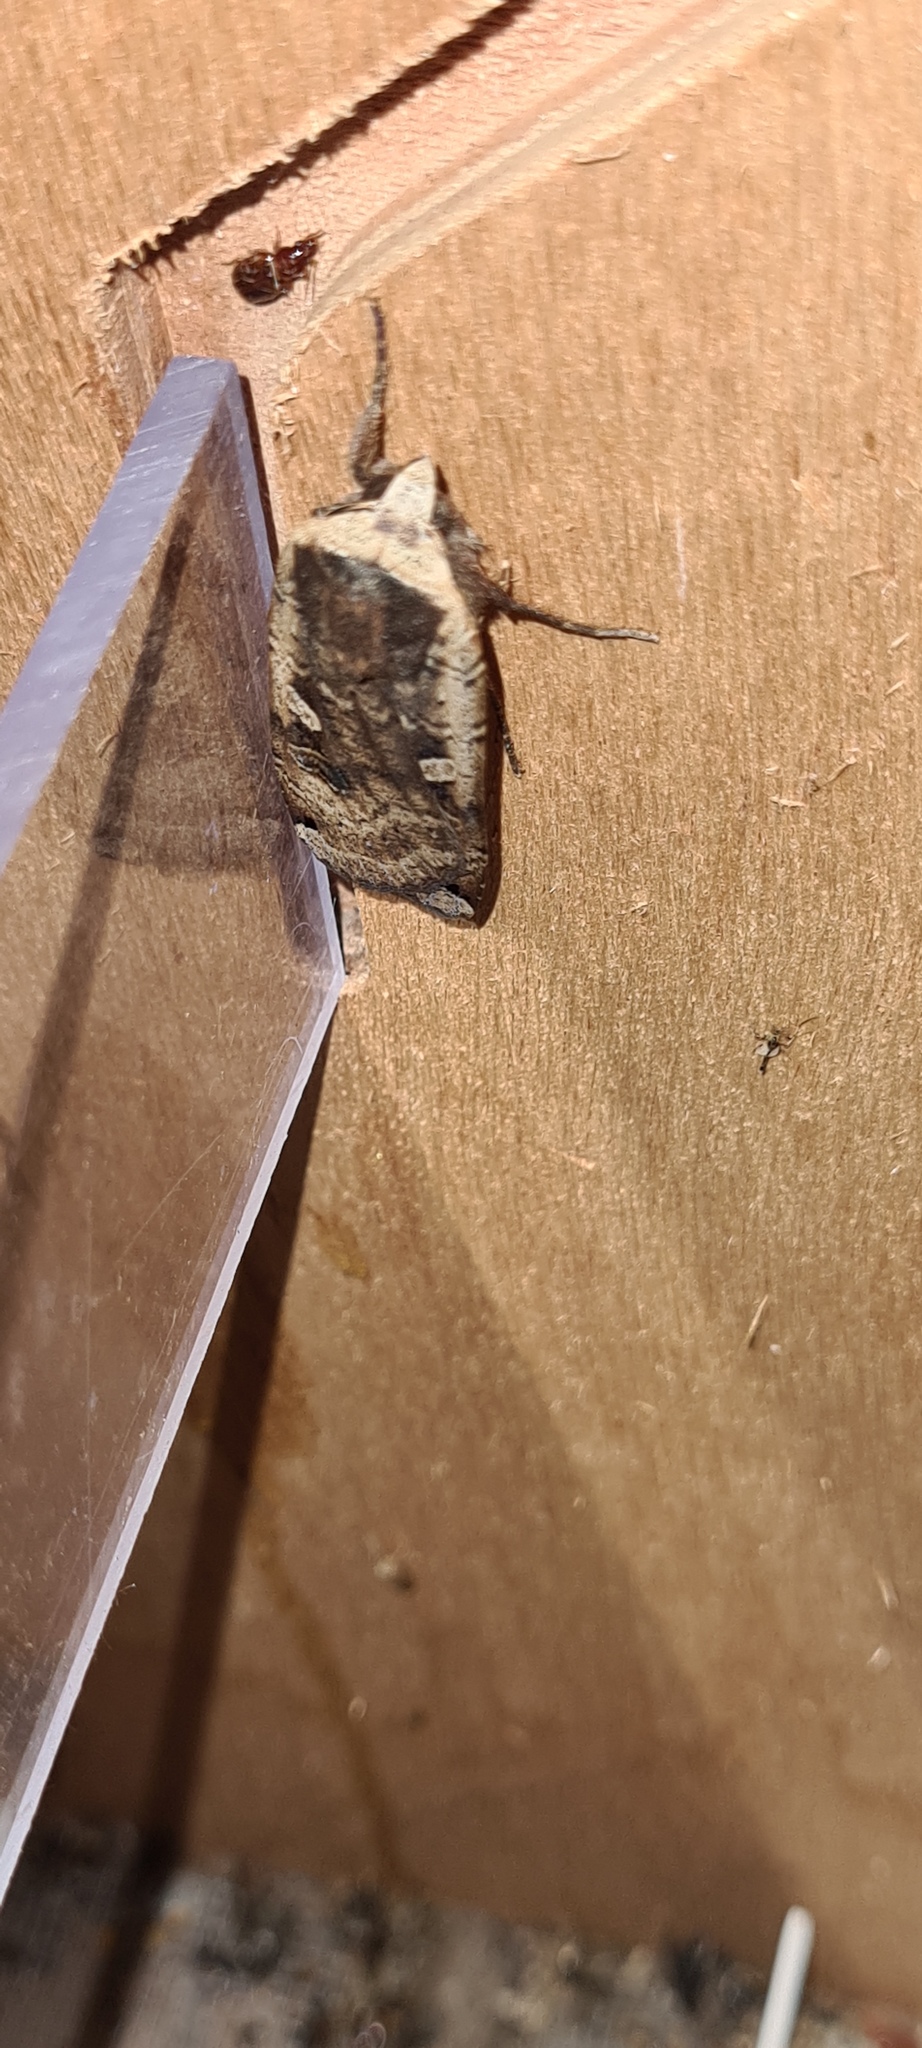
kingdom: Animalia
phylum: Arthropoda
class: Insecta
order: Lepidoptera
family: Noctuidae
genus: Noctua
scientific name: Noctua pronuba
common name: Large yellow underwing
